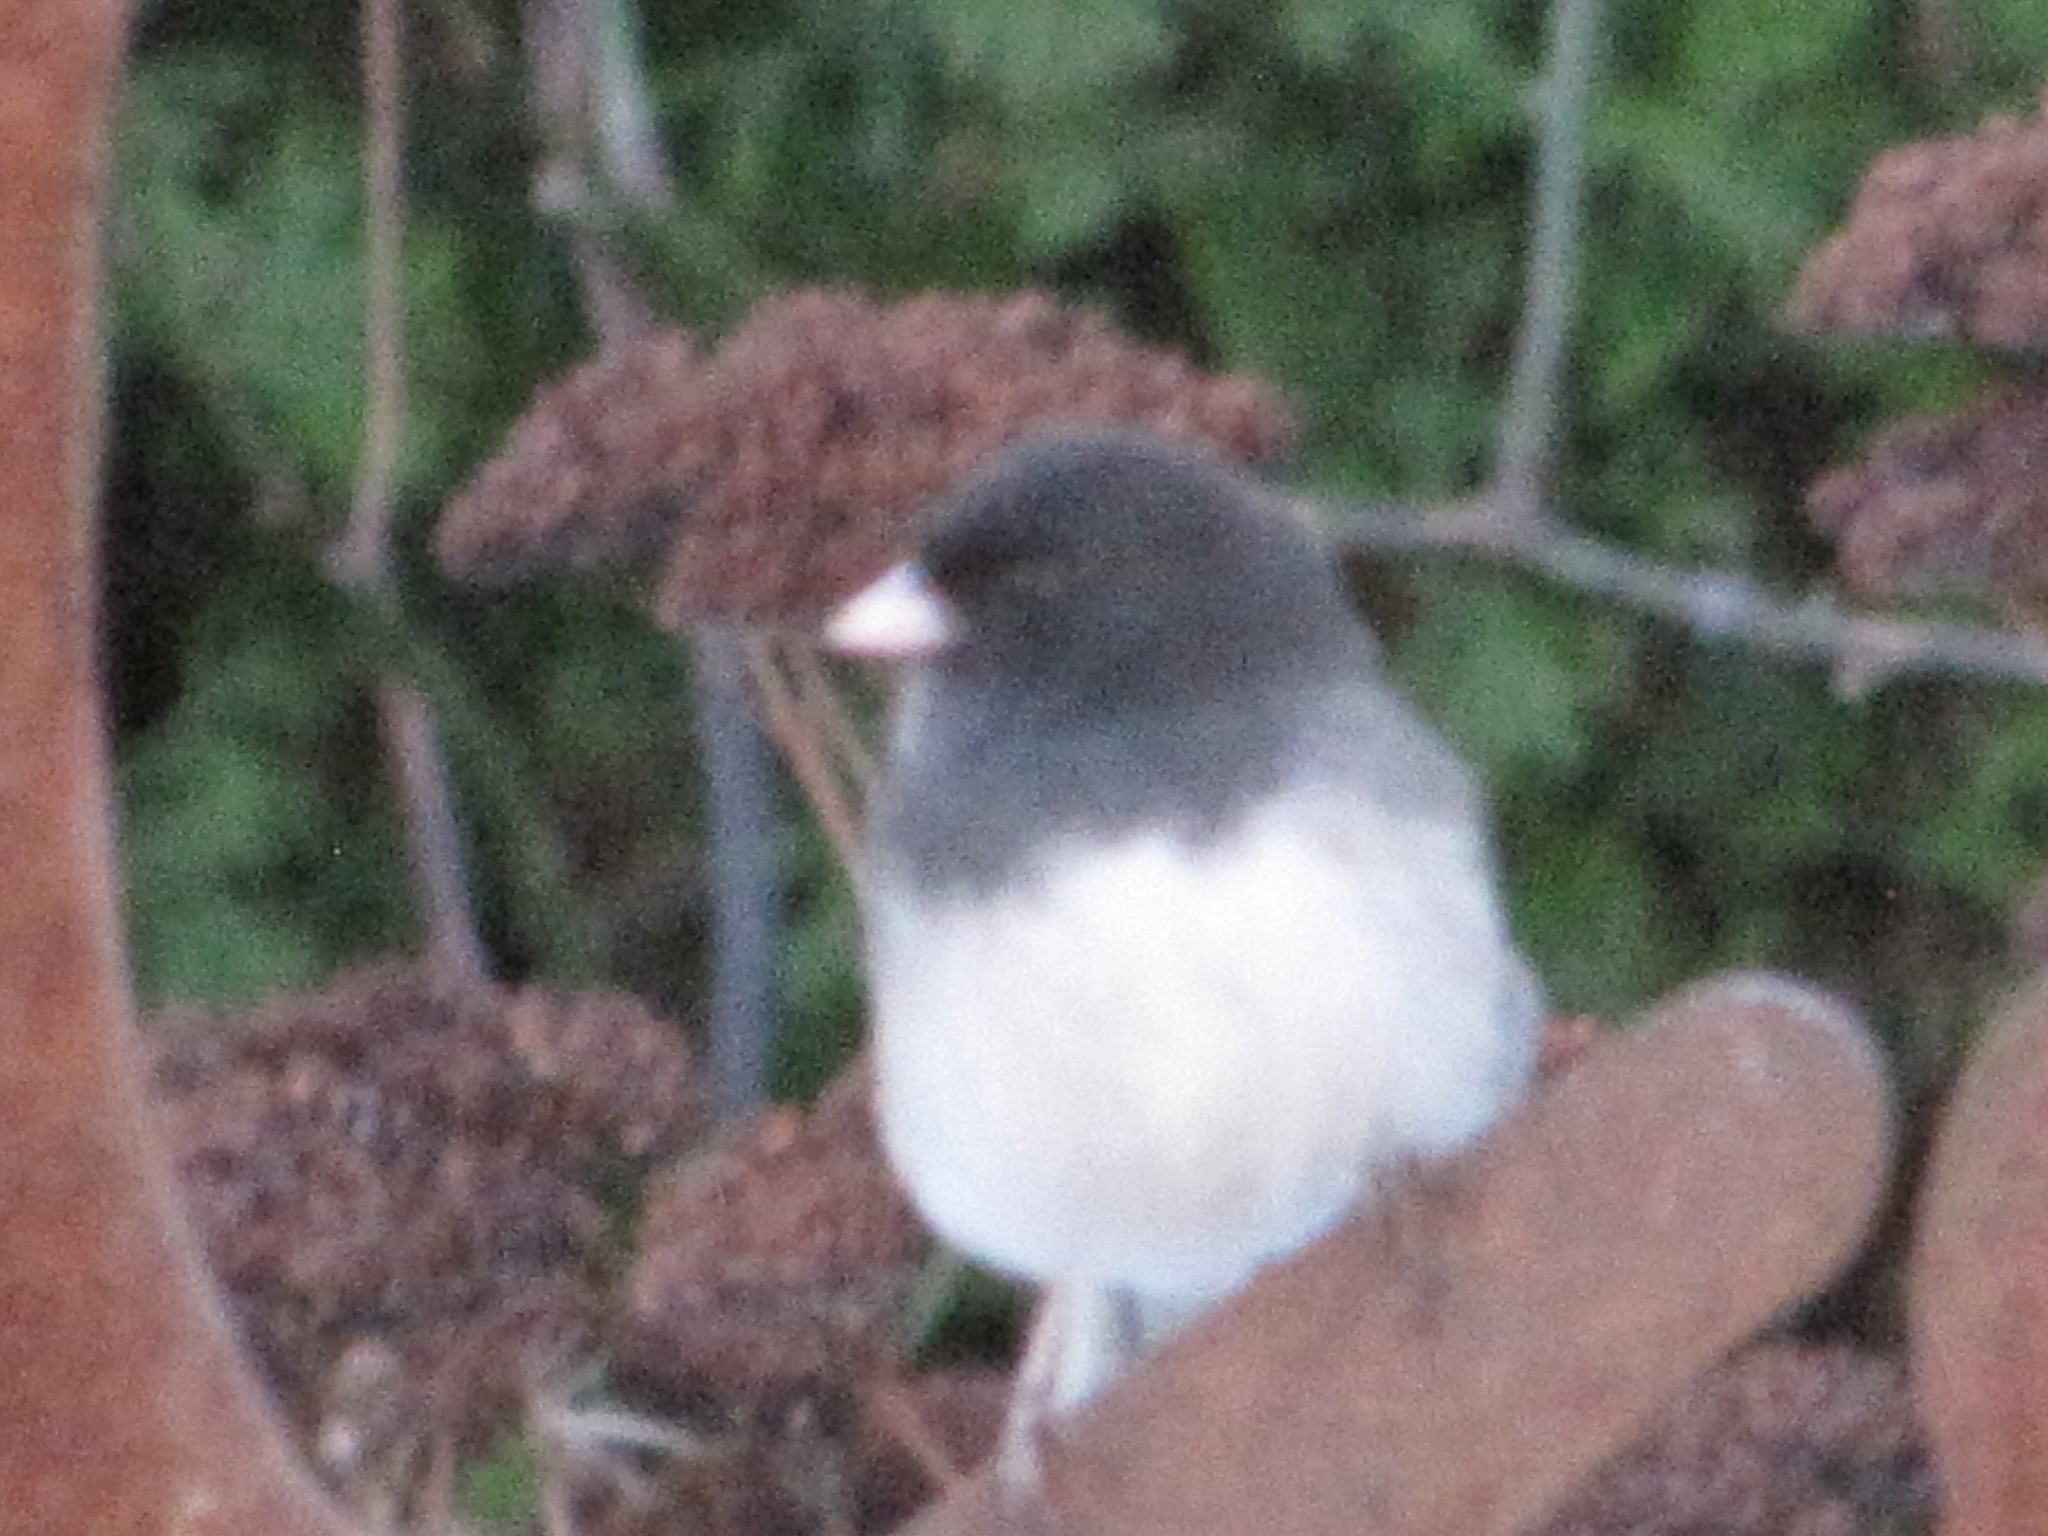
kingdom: Animalia
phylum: Chordata
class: Aves
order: Passeriformes
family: Passerellidae
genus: Junco
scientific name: Junco hyemalis
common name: Dark-eyed junco
